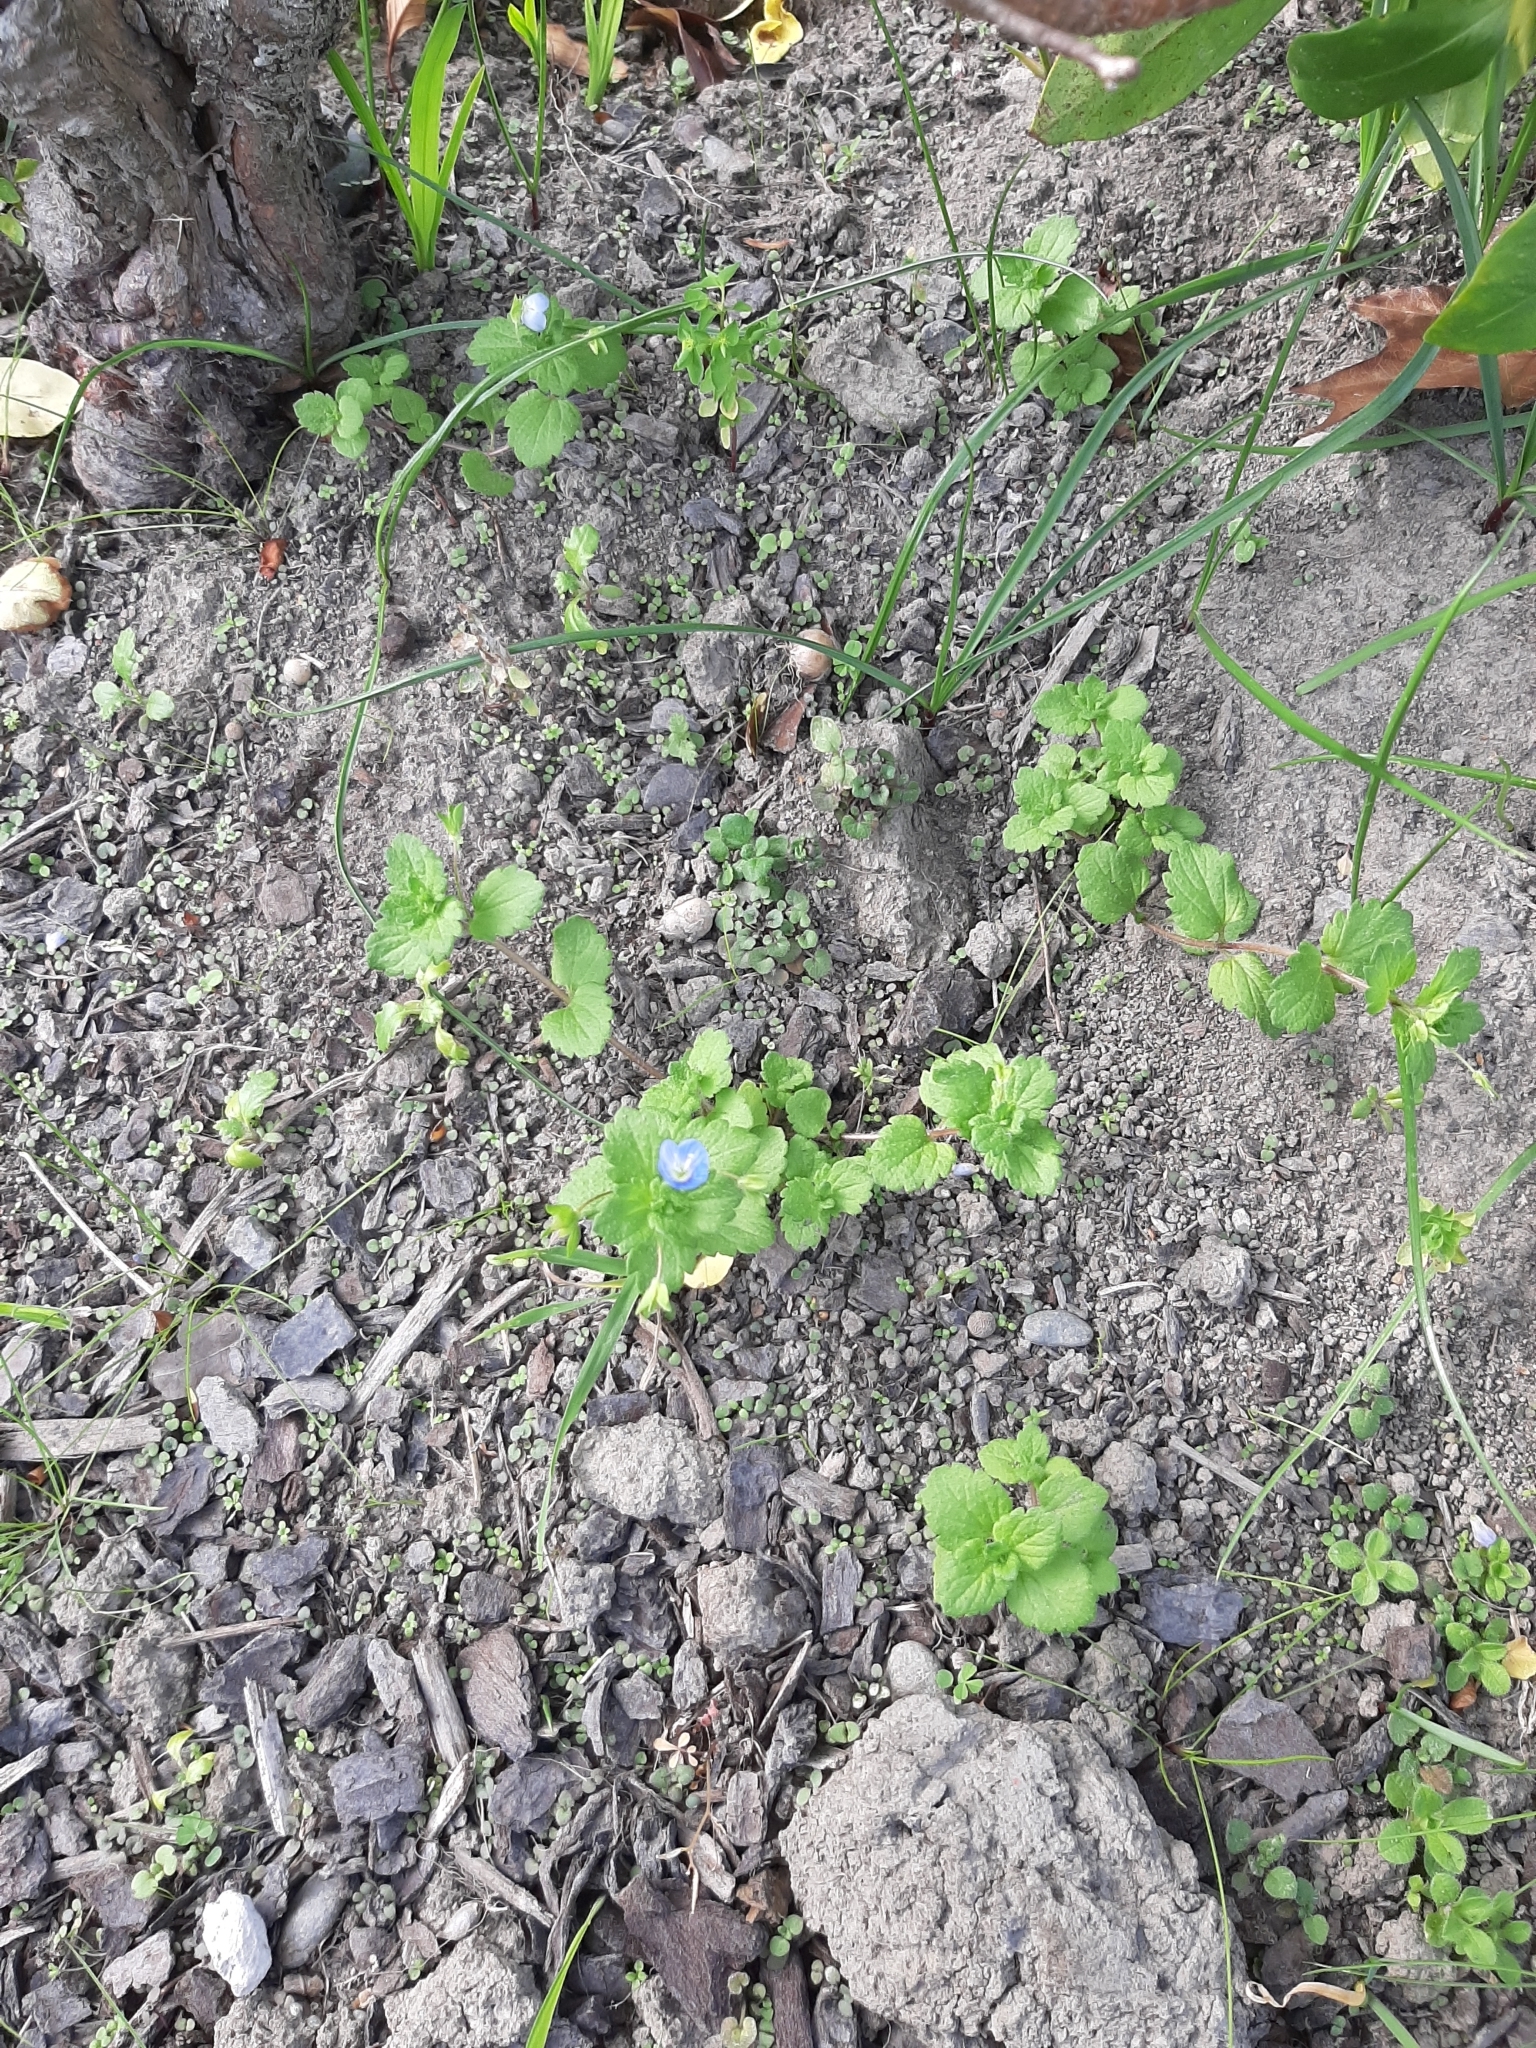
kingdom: Plantae
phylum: Tracheophyta
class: Magnoliopsida
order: Lamiales
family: Plantaginaceae
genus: Veronica
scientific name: Veronica persica
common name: Common field-speedwell
